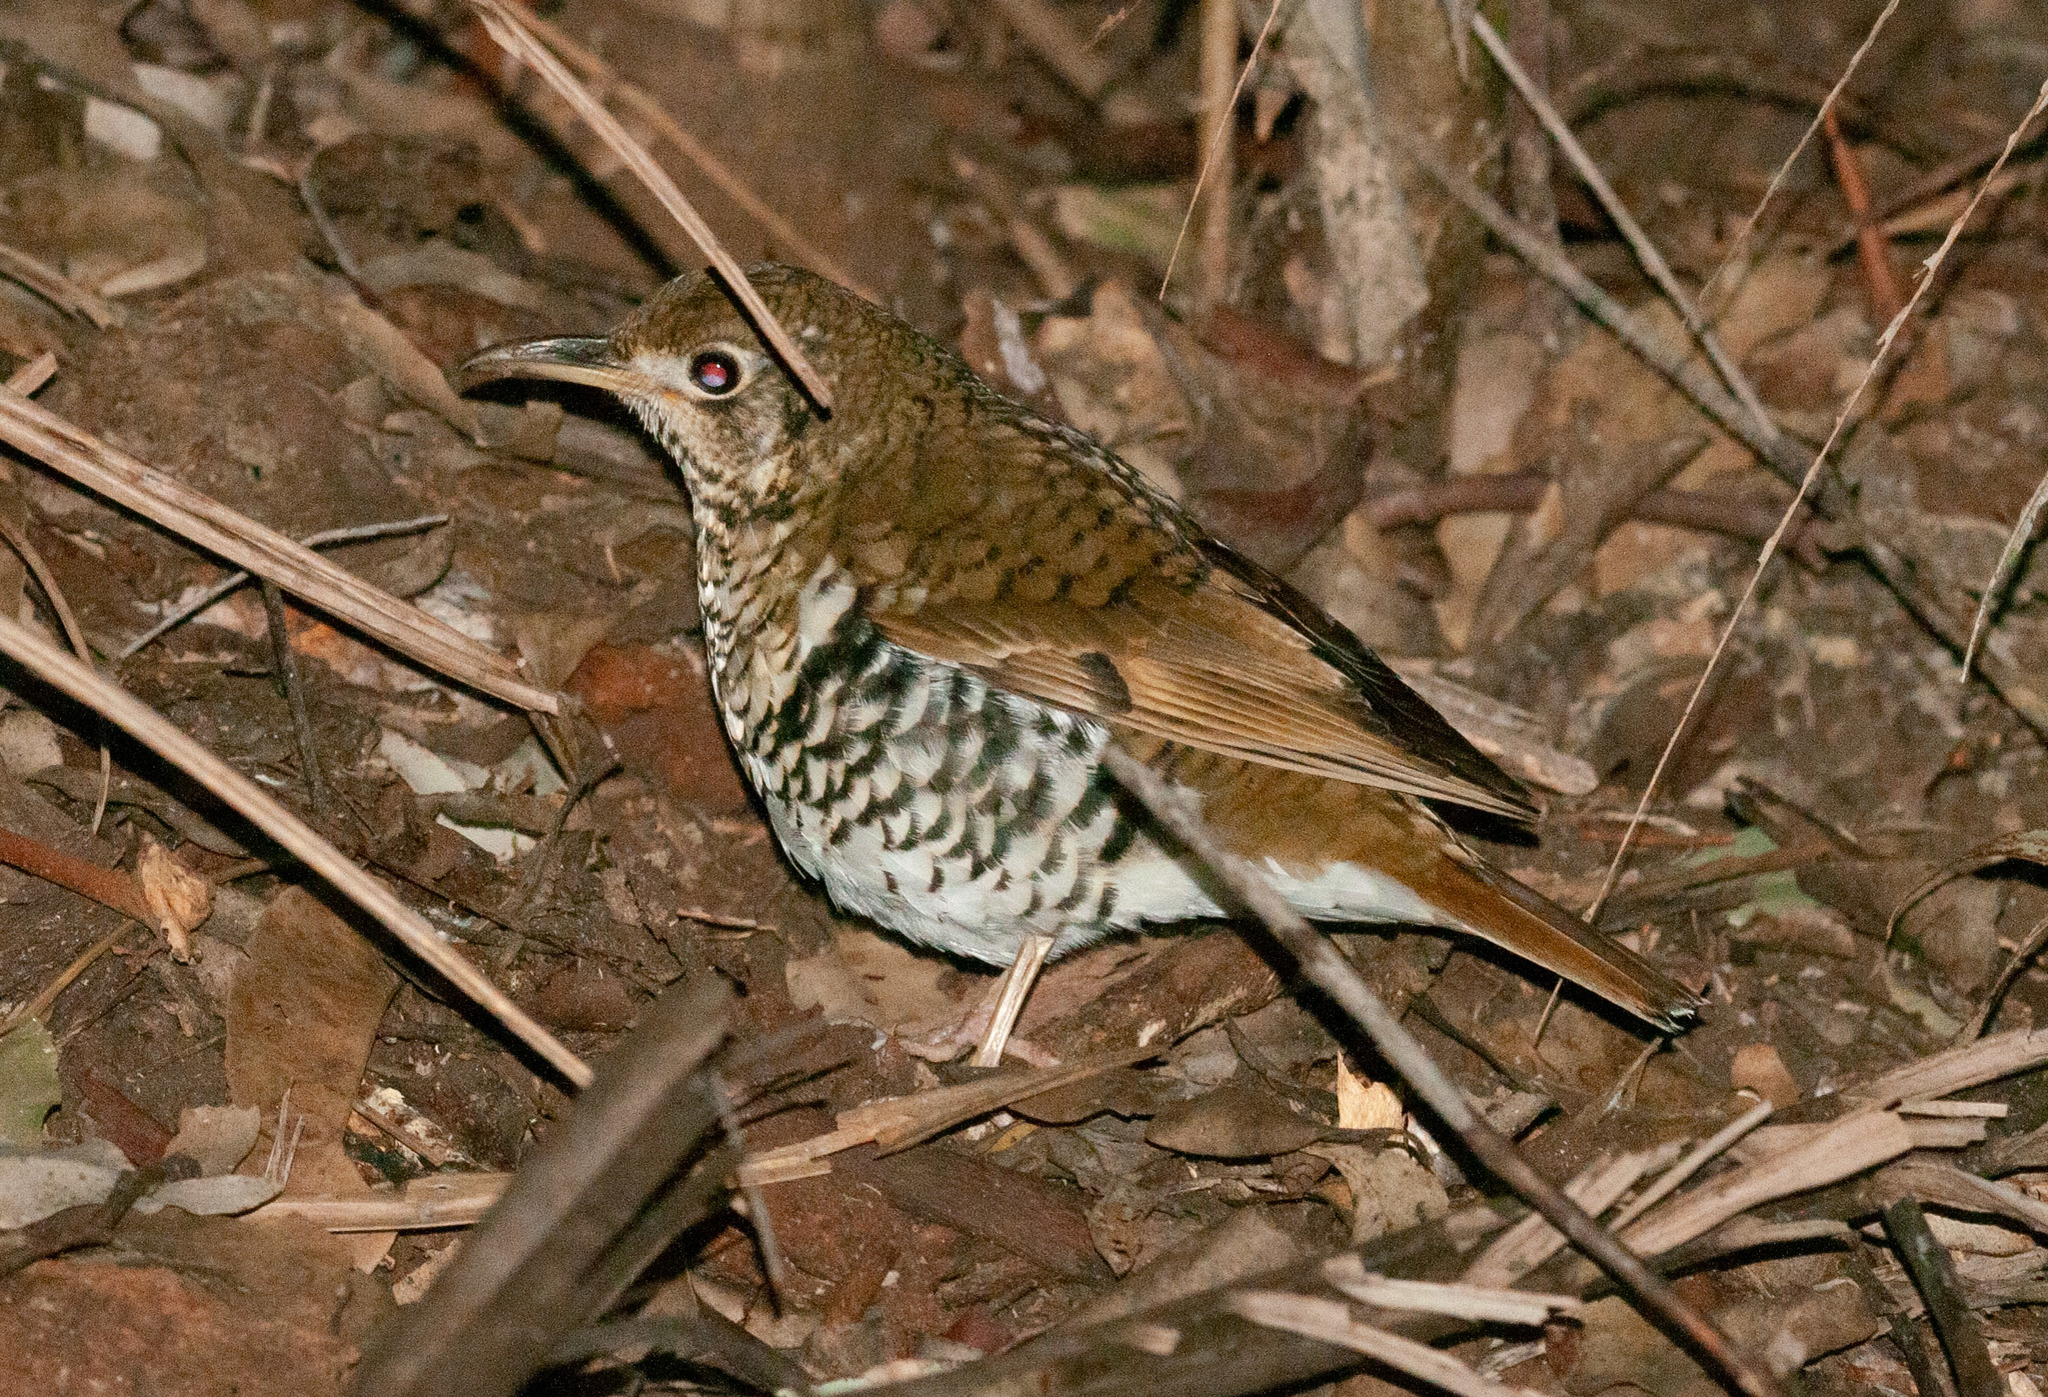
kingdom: Animalia
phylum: Chordata
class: Aves
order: Passeriformes
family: Turdidae
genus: Zoothera
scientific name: Zoothera heinei
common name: Russet-tailed thrush
